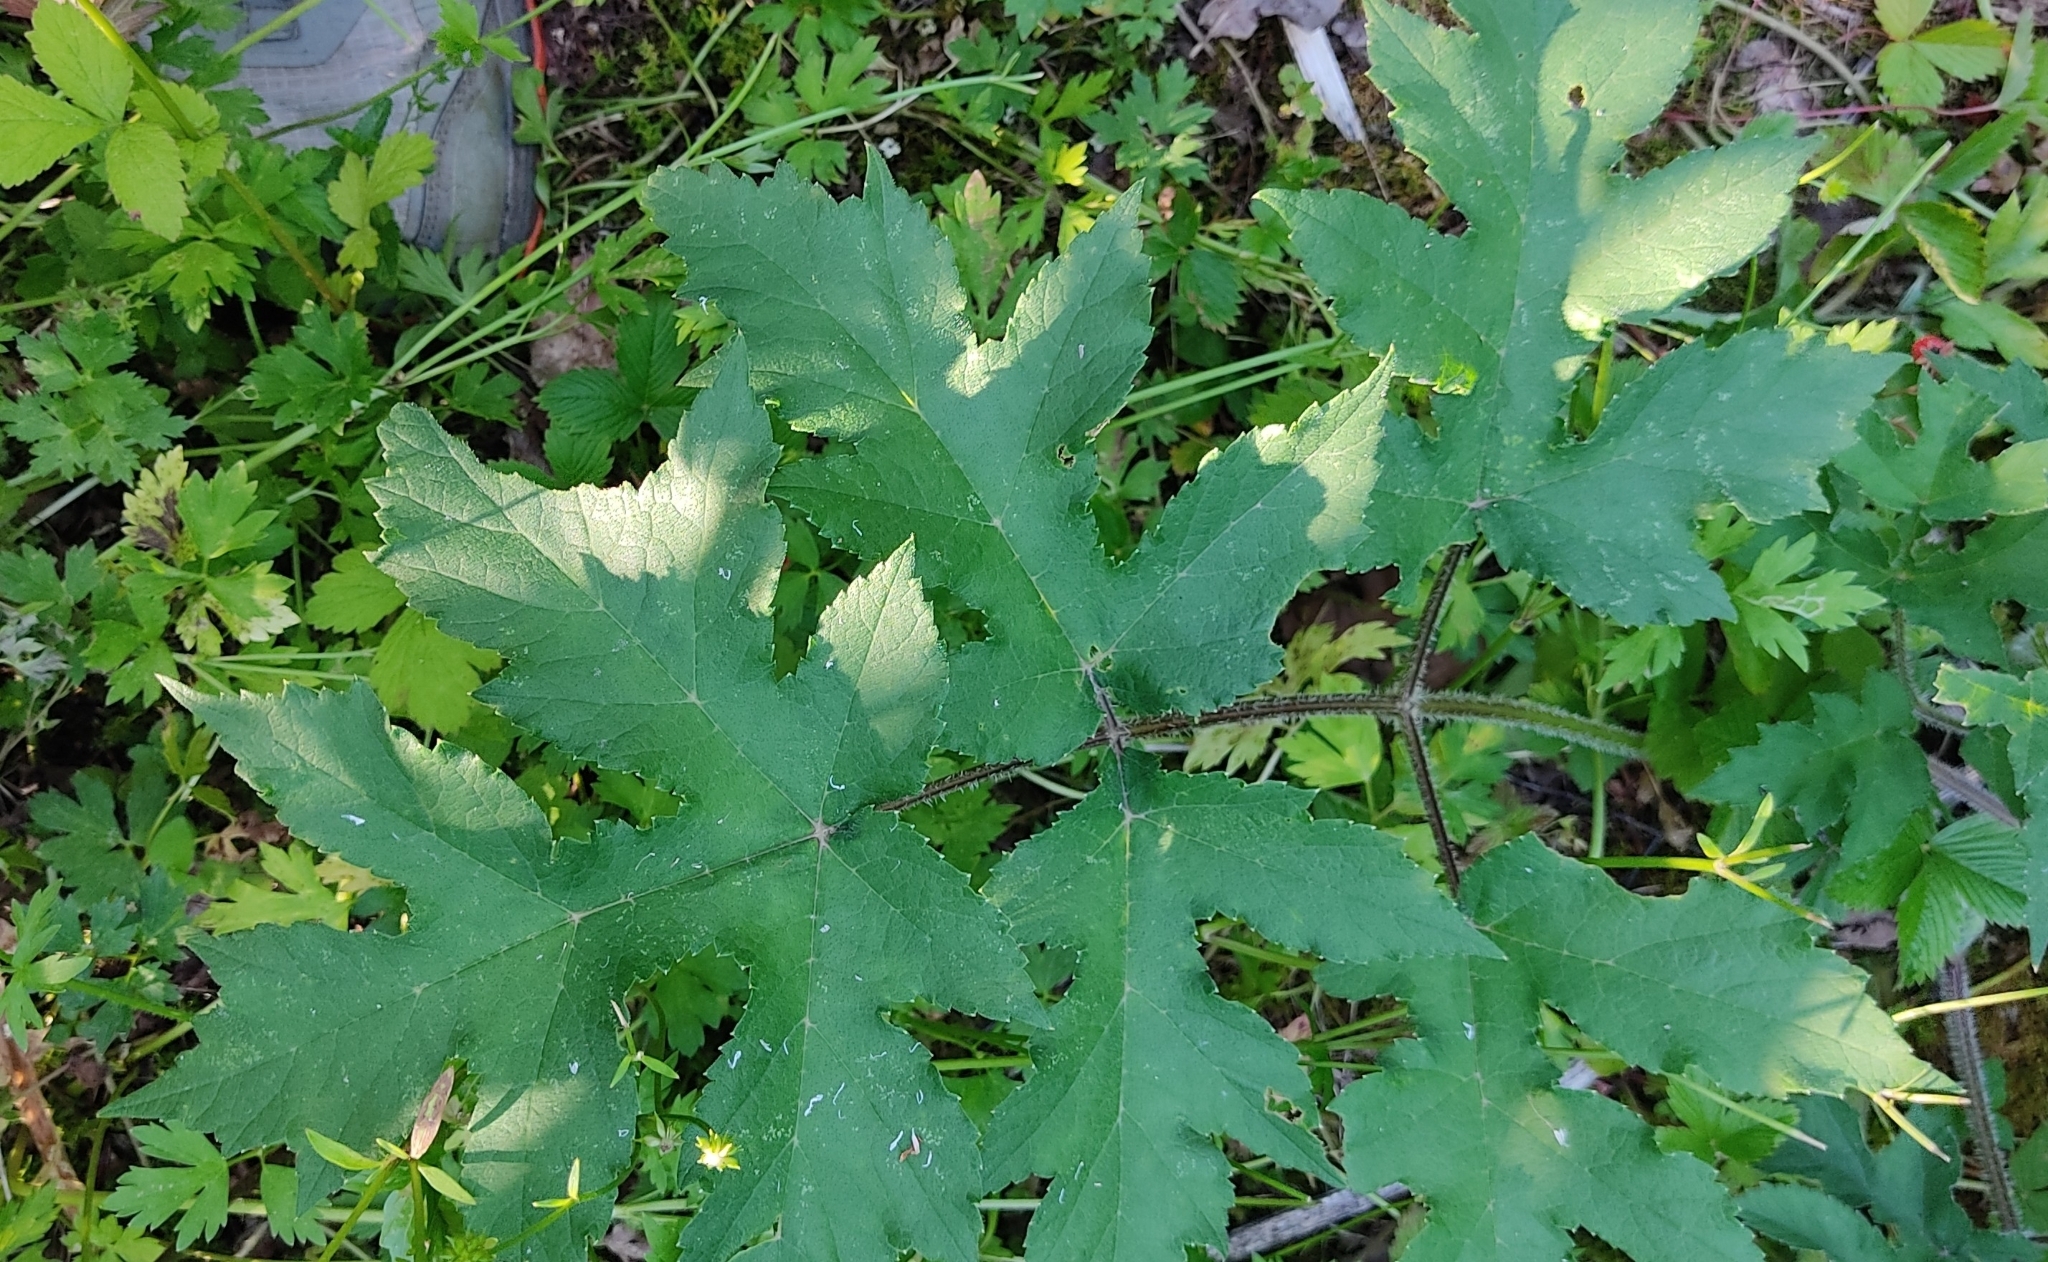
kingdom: Plantae
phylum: Tracheophyta
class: Magnoliopsida
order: Apiales
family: Apiaceae
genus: Heracleum
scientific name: Heracleum sphondylium
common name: Hogweed
